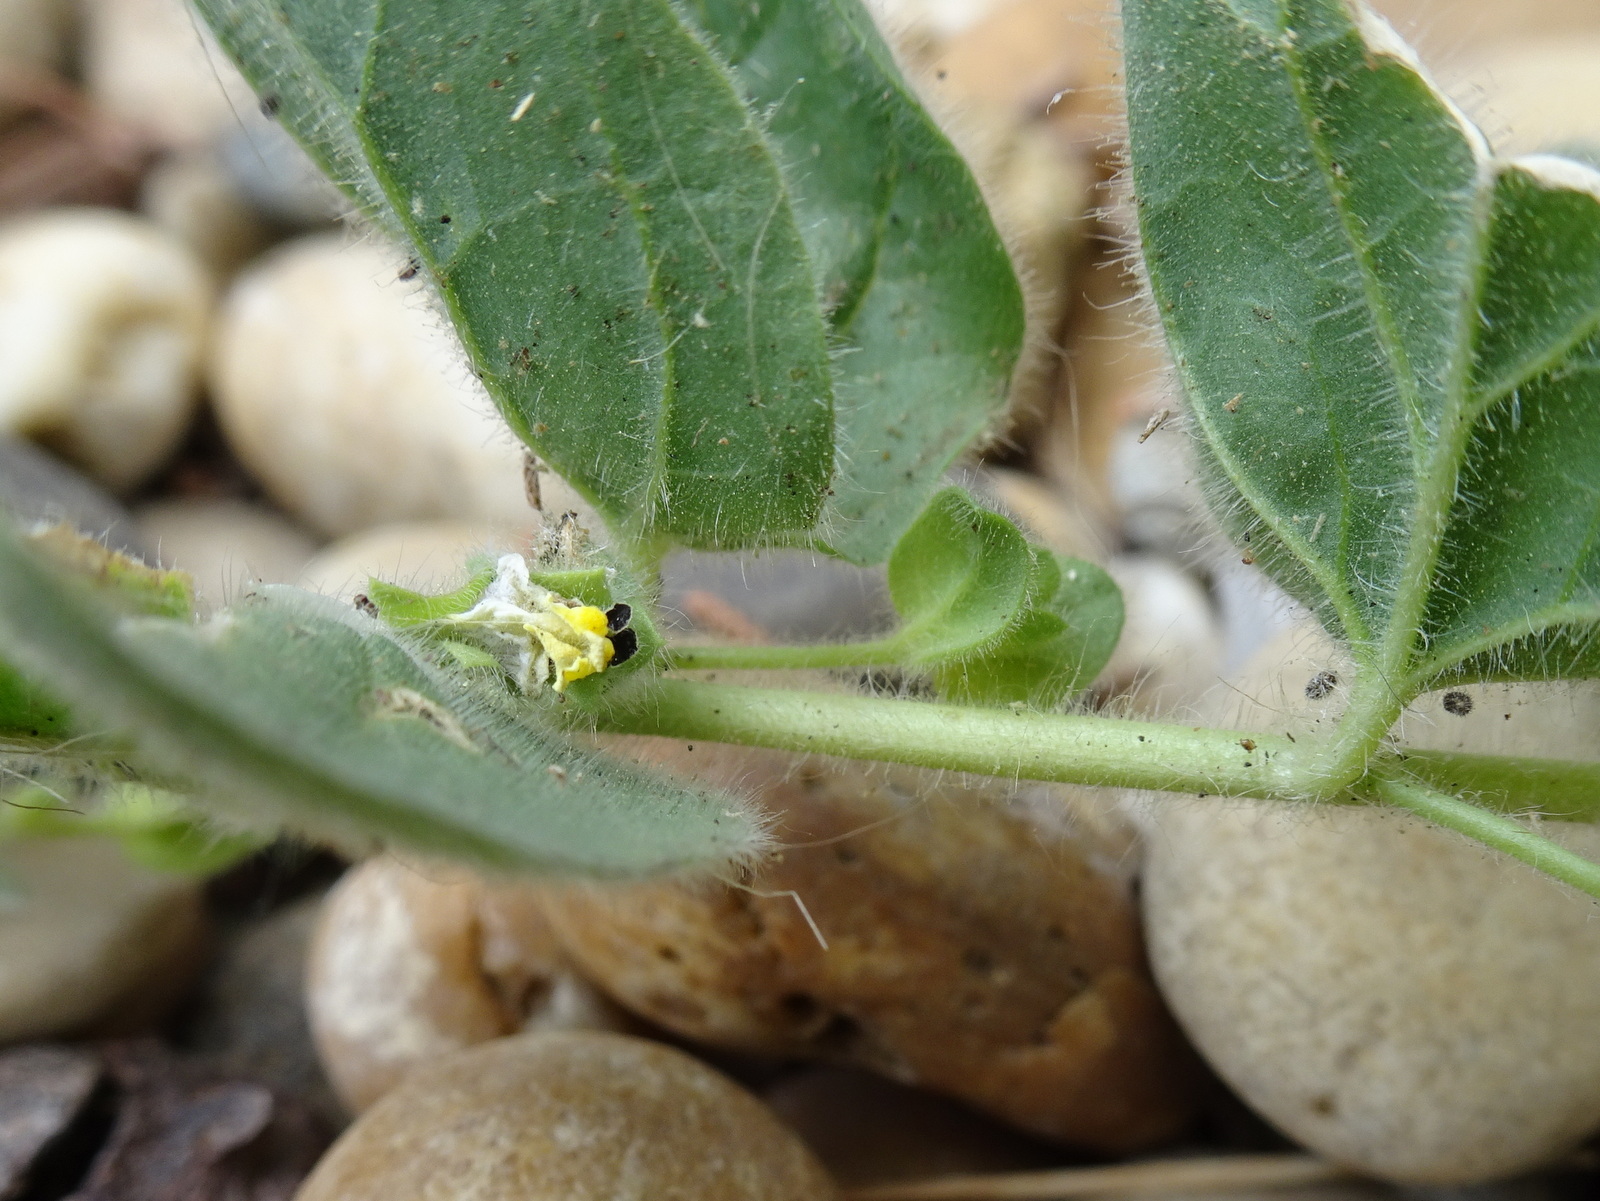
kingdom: Plantae
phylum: Tracheophyta
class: Magnoliopsida
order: Lamiales
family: Plantaginaceae
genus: Kickxia
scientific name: Kickxia spuria
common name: Round-leaved fluellen
